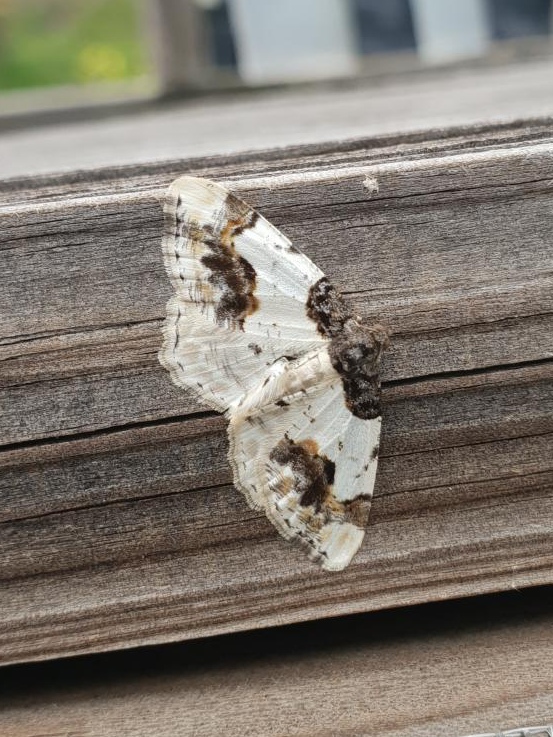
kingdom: Animalia
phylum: Arthropoda
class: Insecta
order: Lepidoptera
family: Geometridae
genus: Ligdia
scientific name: Ligdia adustata
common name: Scorched carpet
